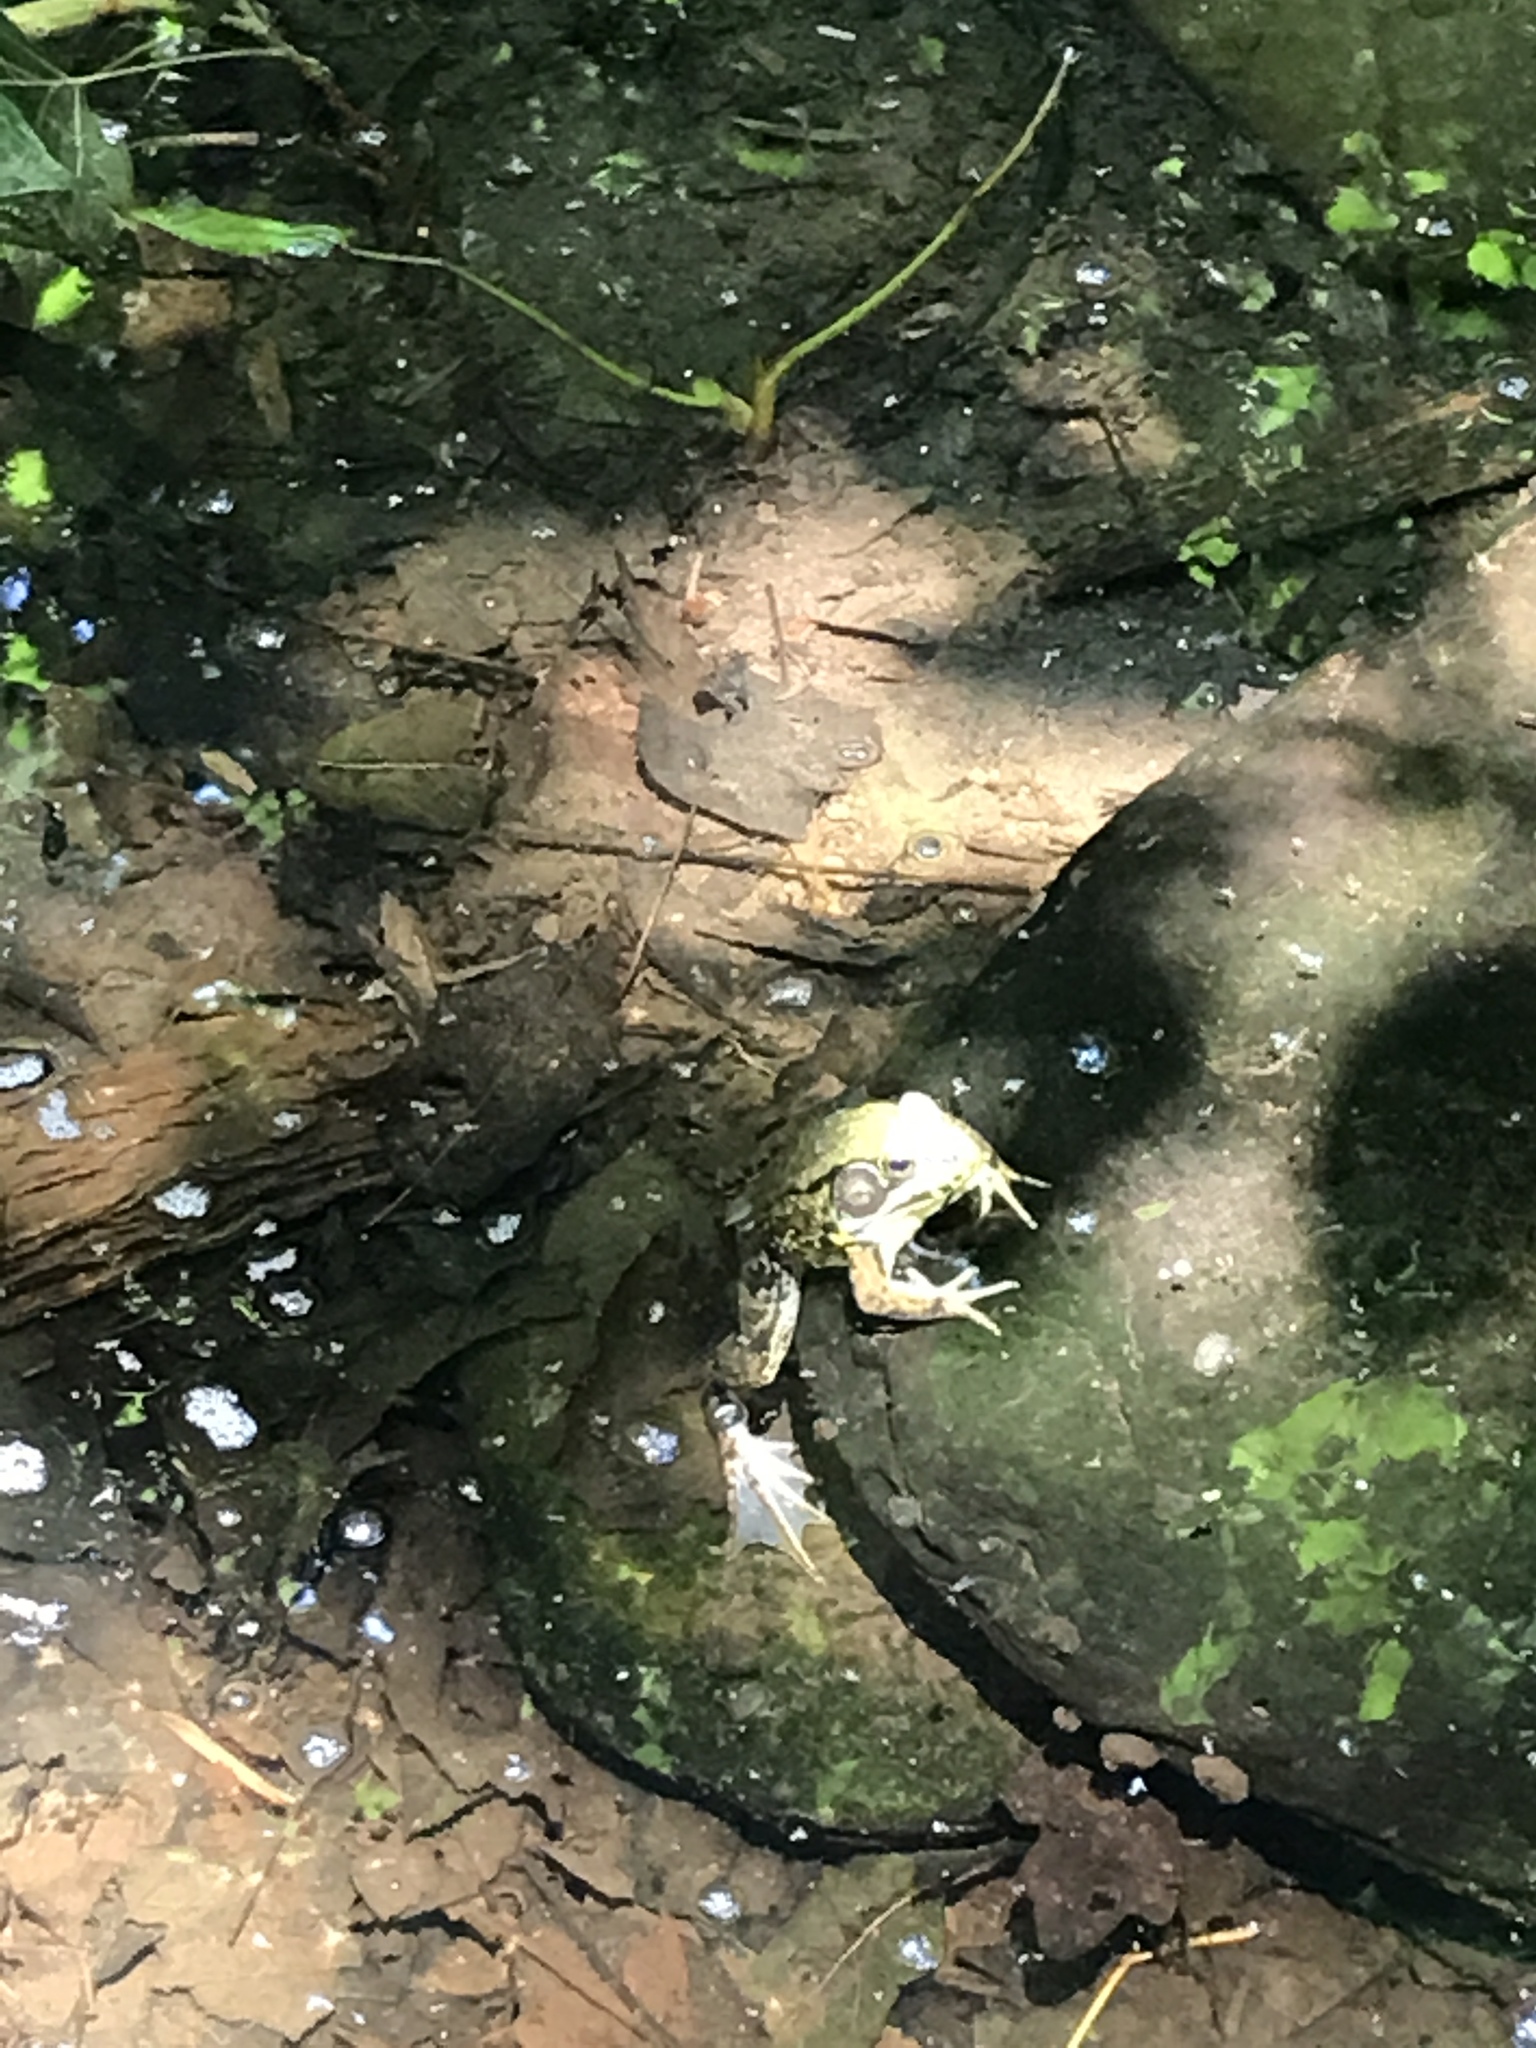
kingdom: Animalia
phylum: Chordata
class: Amphibia
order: Anura
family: Ranidae
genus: Lithobates
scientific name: Lithobates clamitans
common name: Green frog
